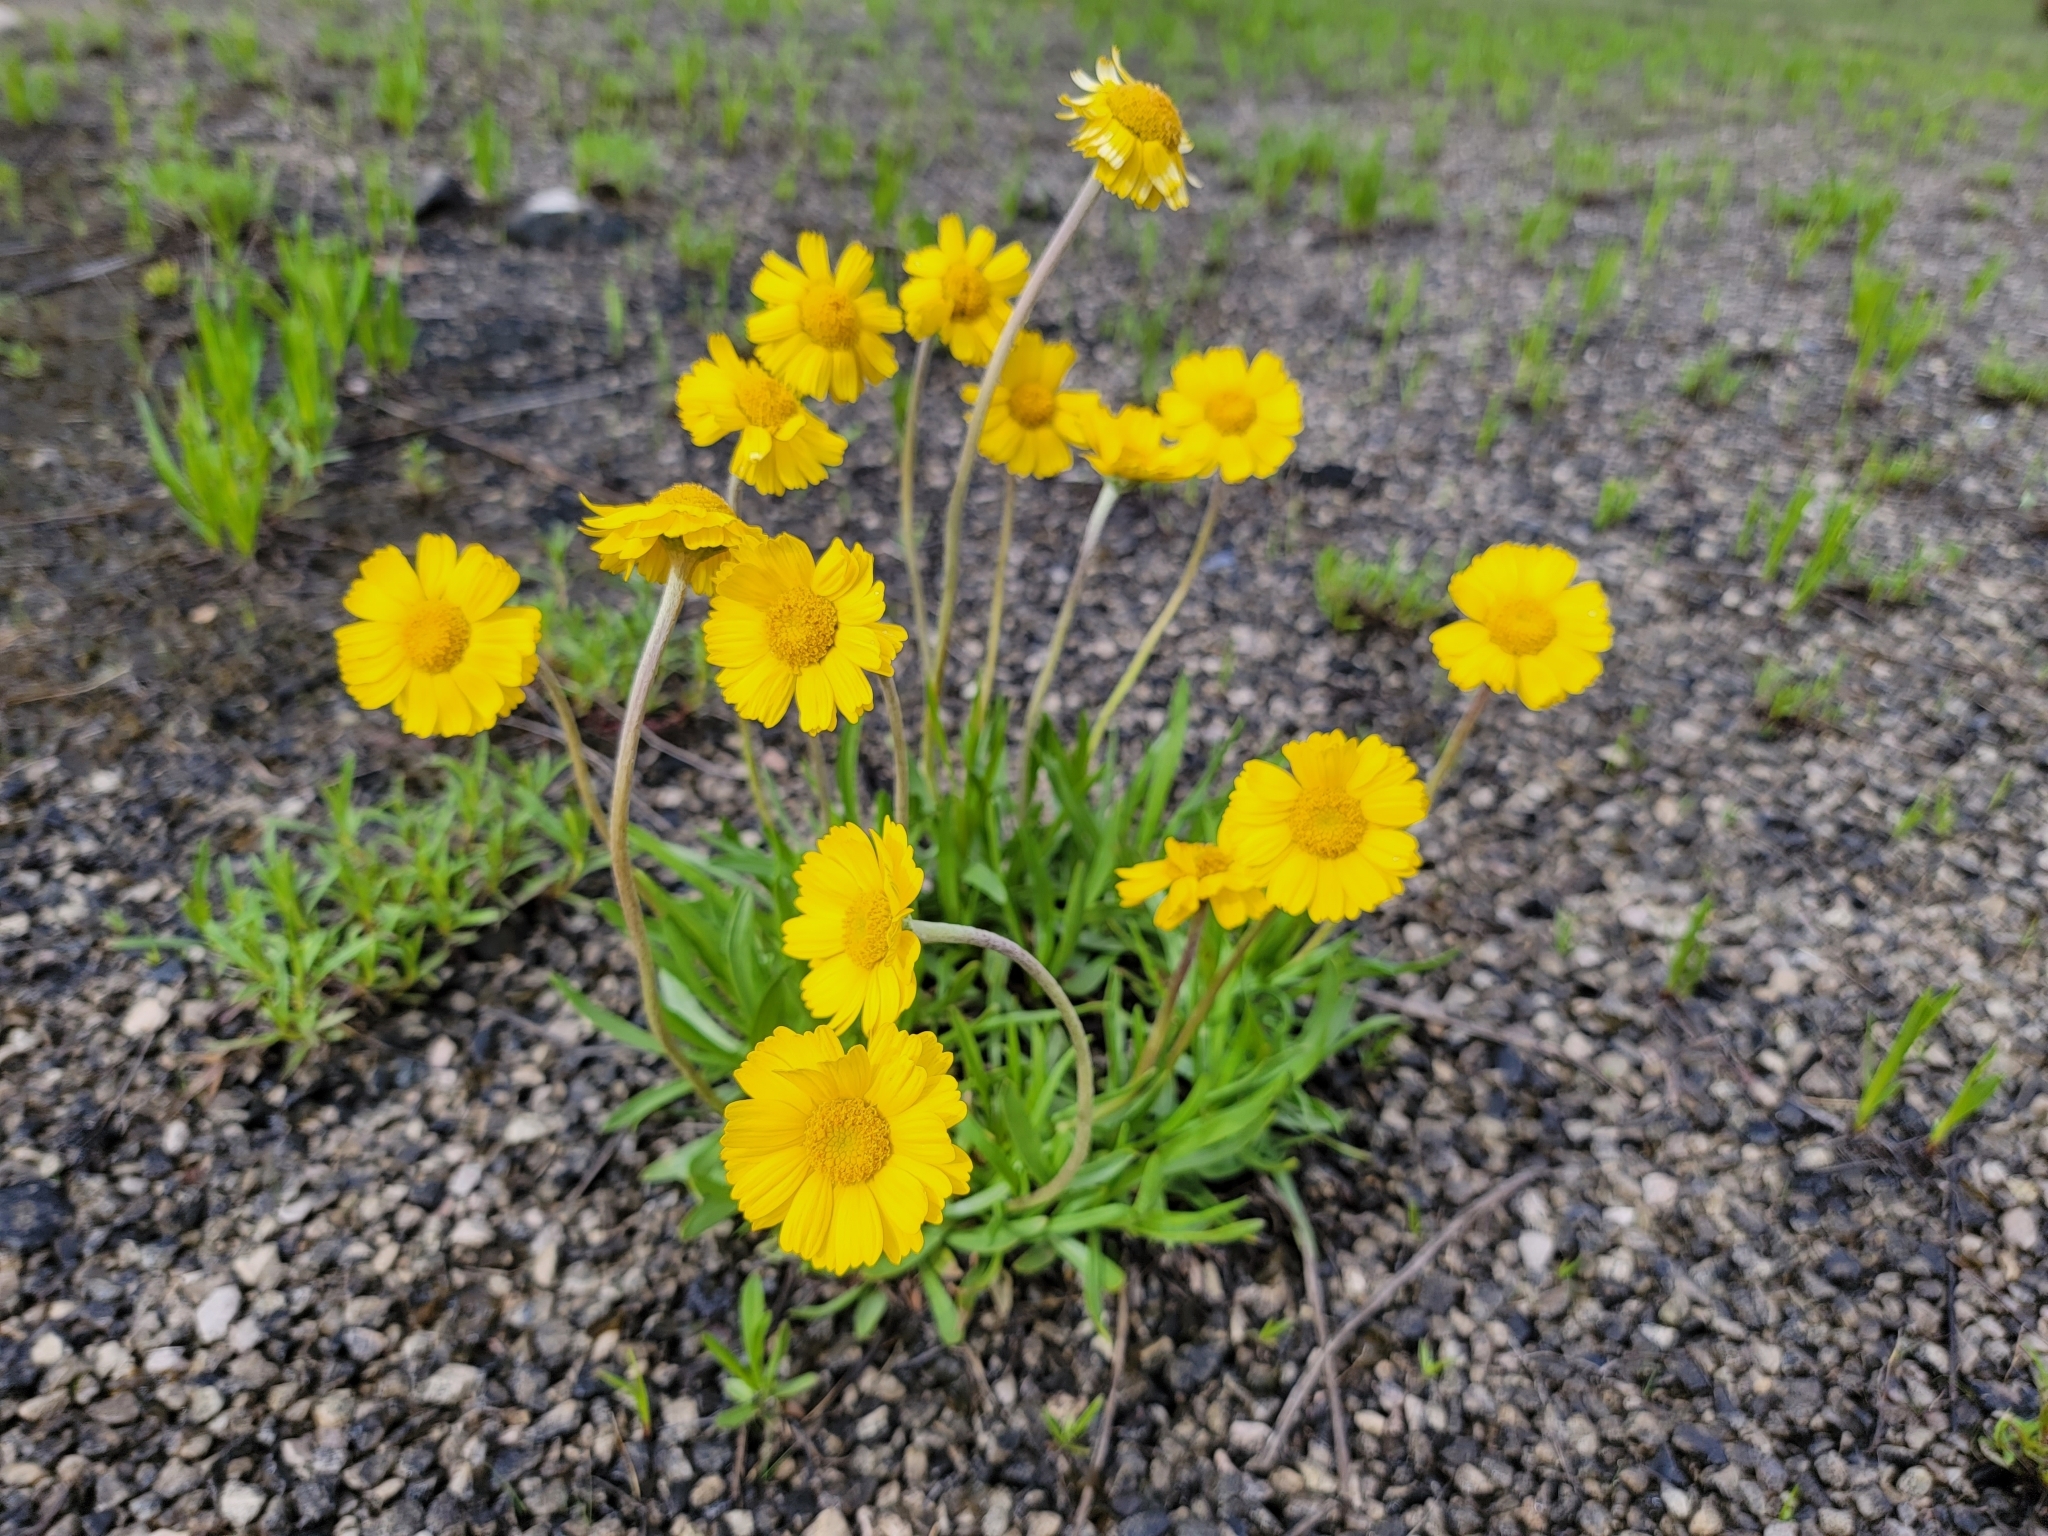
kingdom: Plantae
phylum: Tracheophyta
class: Magnoliopsida
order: Asterales
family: Asteraceae
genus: Tetraneuris
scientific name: Tetraneuris herbacea
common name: Lakeside daisy
